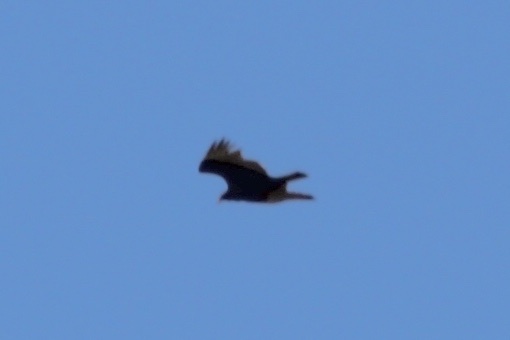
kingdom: Animalia
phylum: Chordata
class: Aves
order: Accipitriformes
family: Cathartidae
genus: Cathartes
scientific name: Cathartes aura
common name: Turkey vulture
